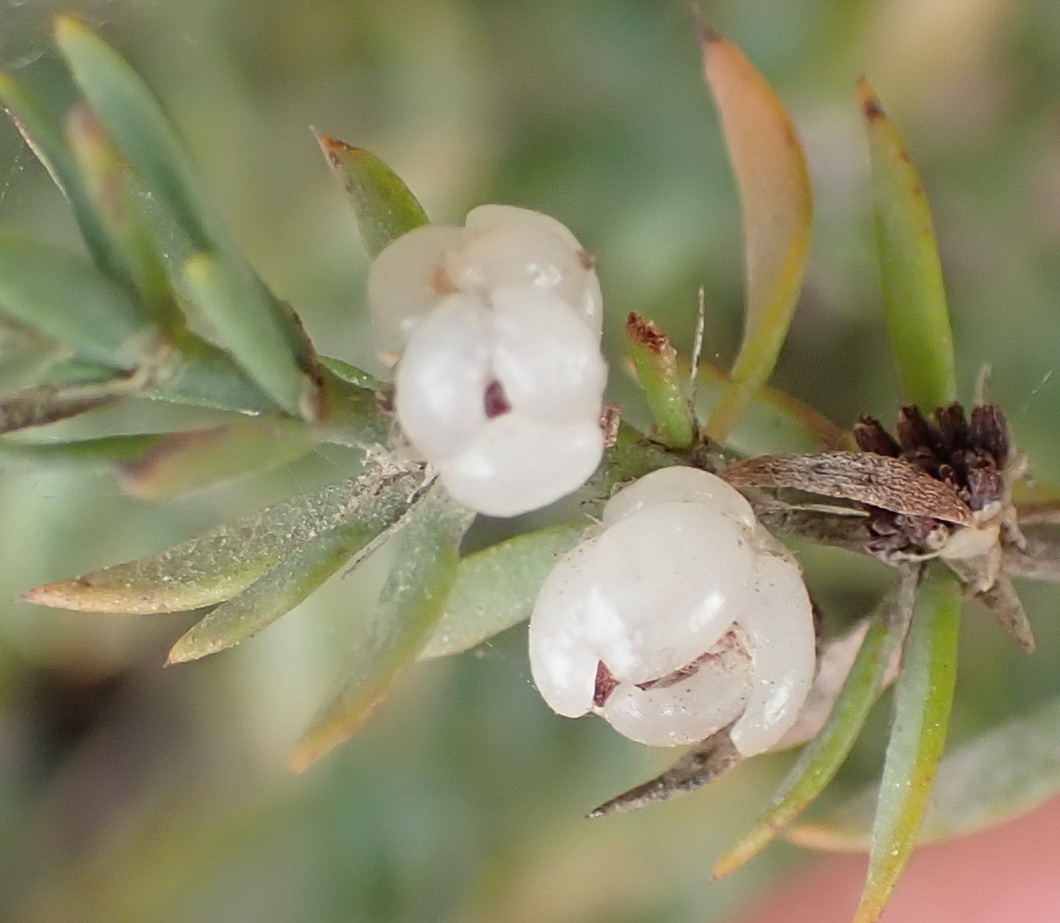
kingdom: Plantae
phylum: Tracheophyta
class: Magnoliopsida
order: Caryophyllales
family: Caryophyllaceae
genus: Pollichia
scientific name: Pollichia campestris
